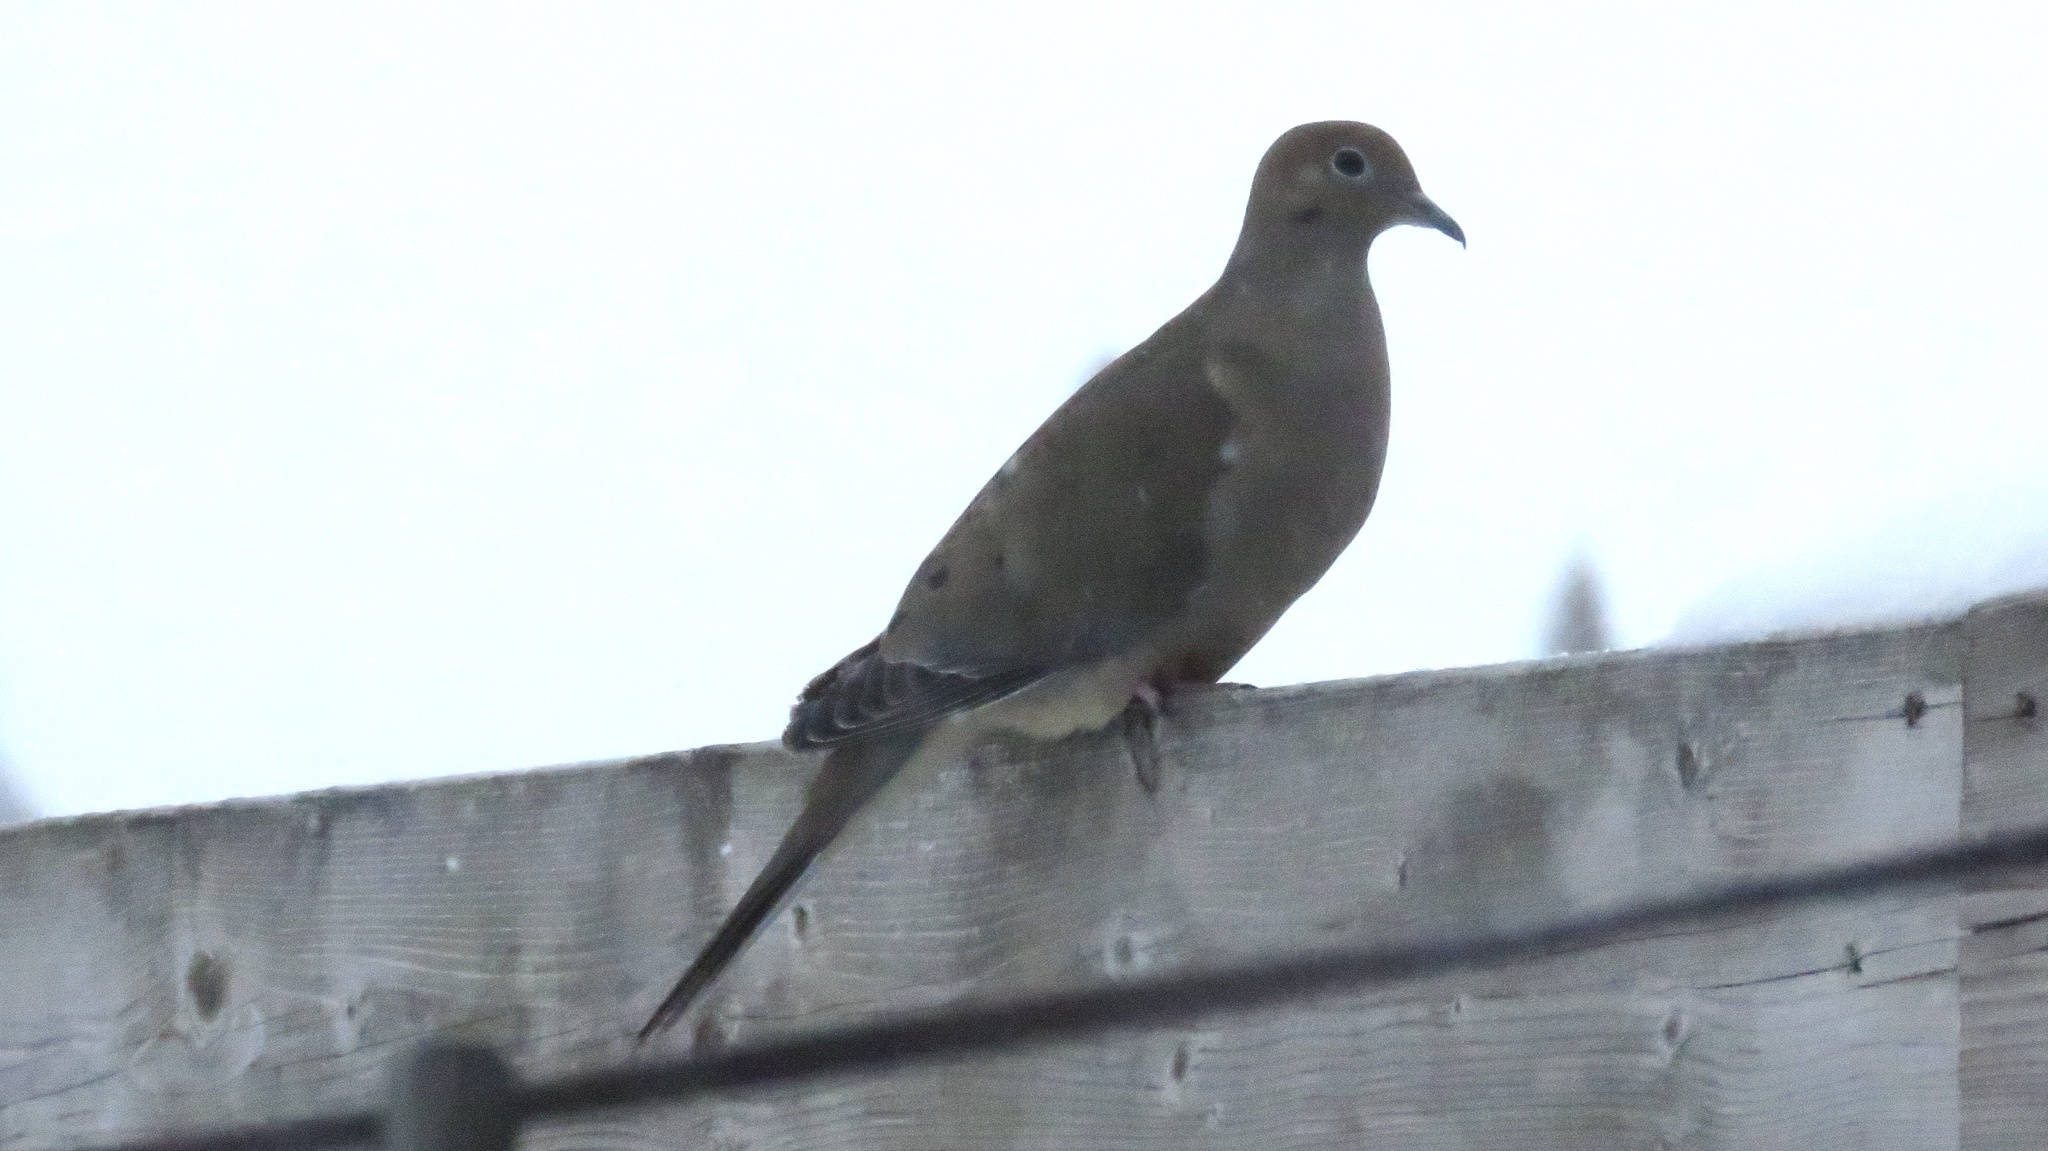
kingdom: Animalia
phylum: Chordata
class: Aves
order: Columbiformes
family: Columbidae
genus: Zenaida
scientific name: Zenaida macroura
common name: Mourning dove
